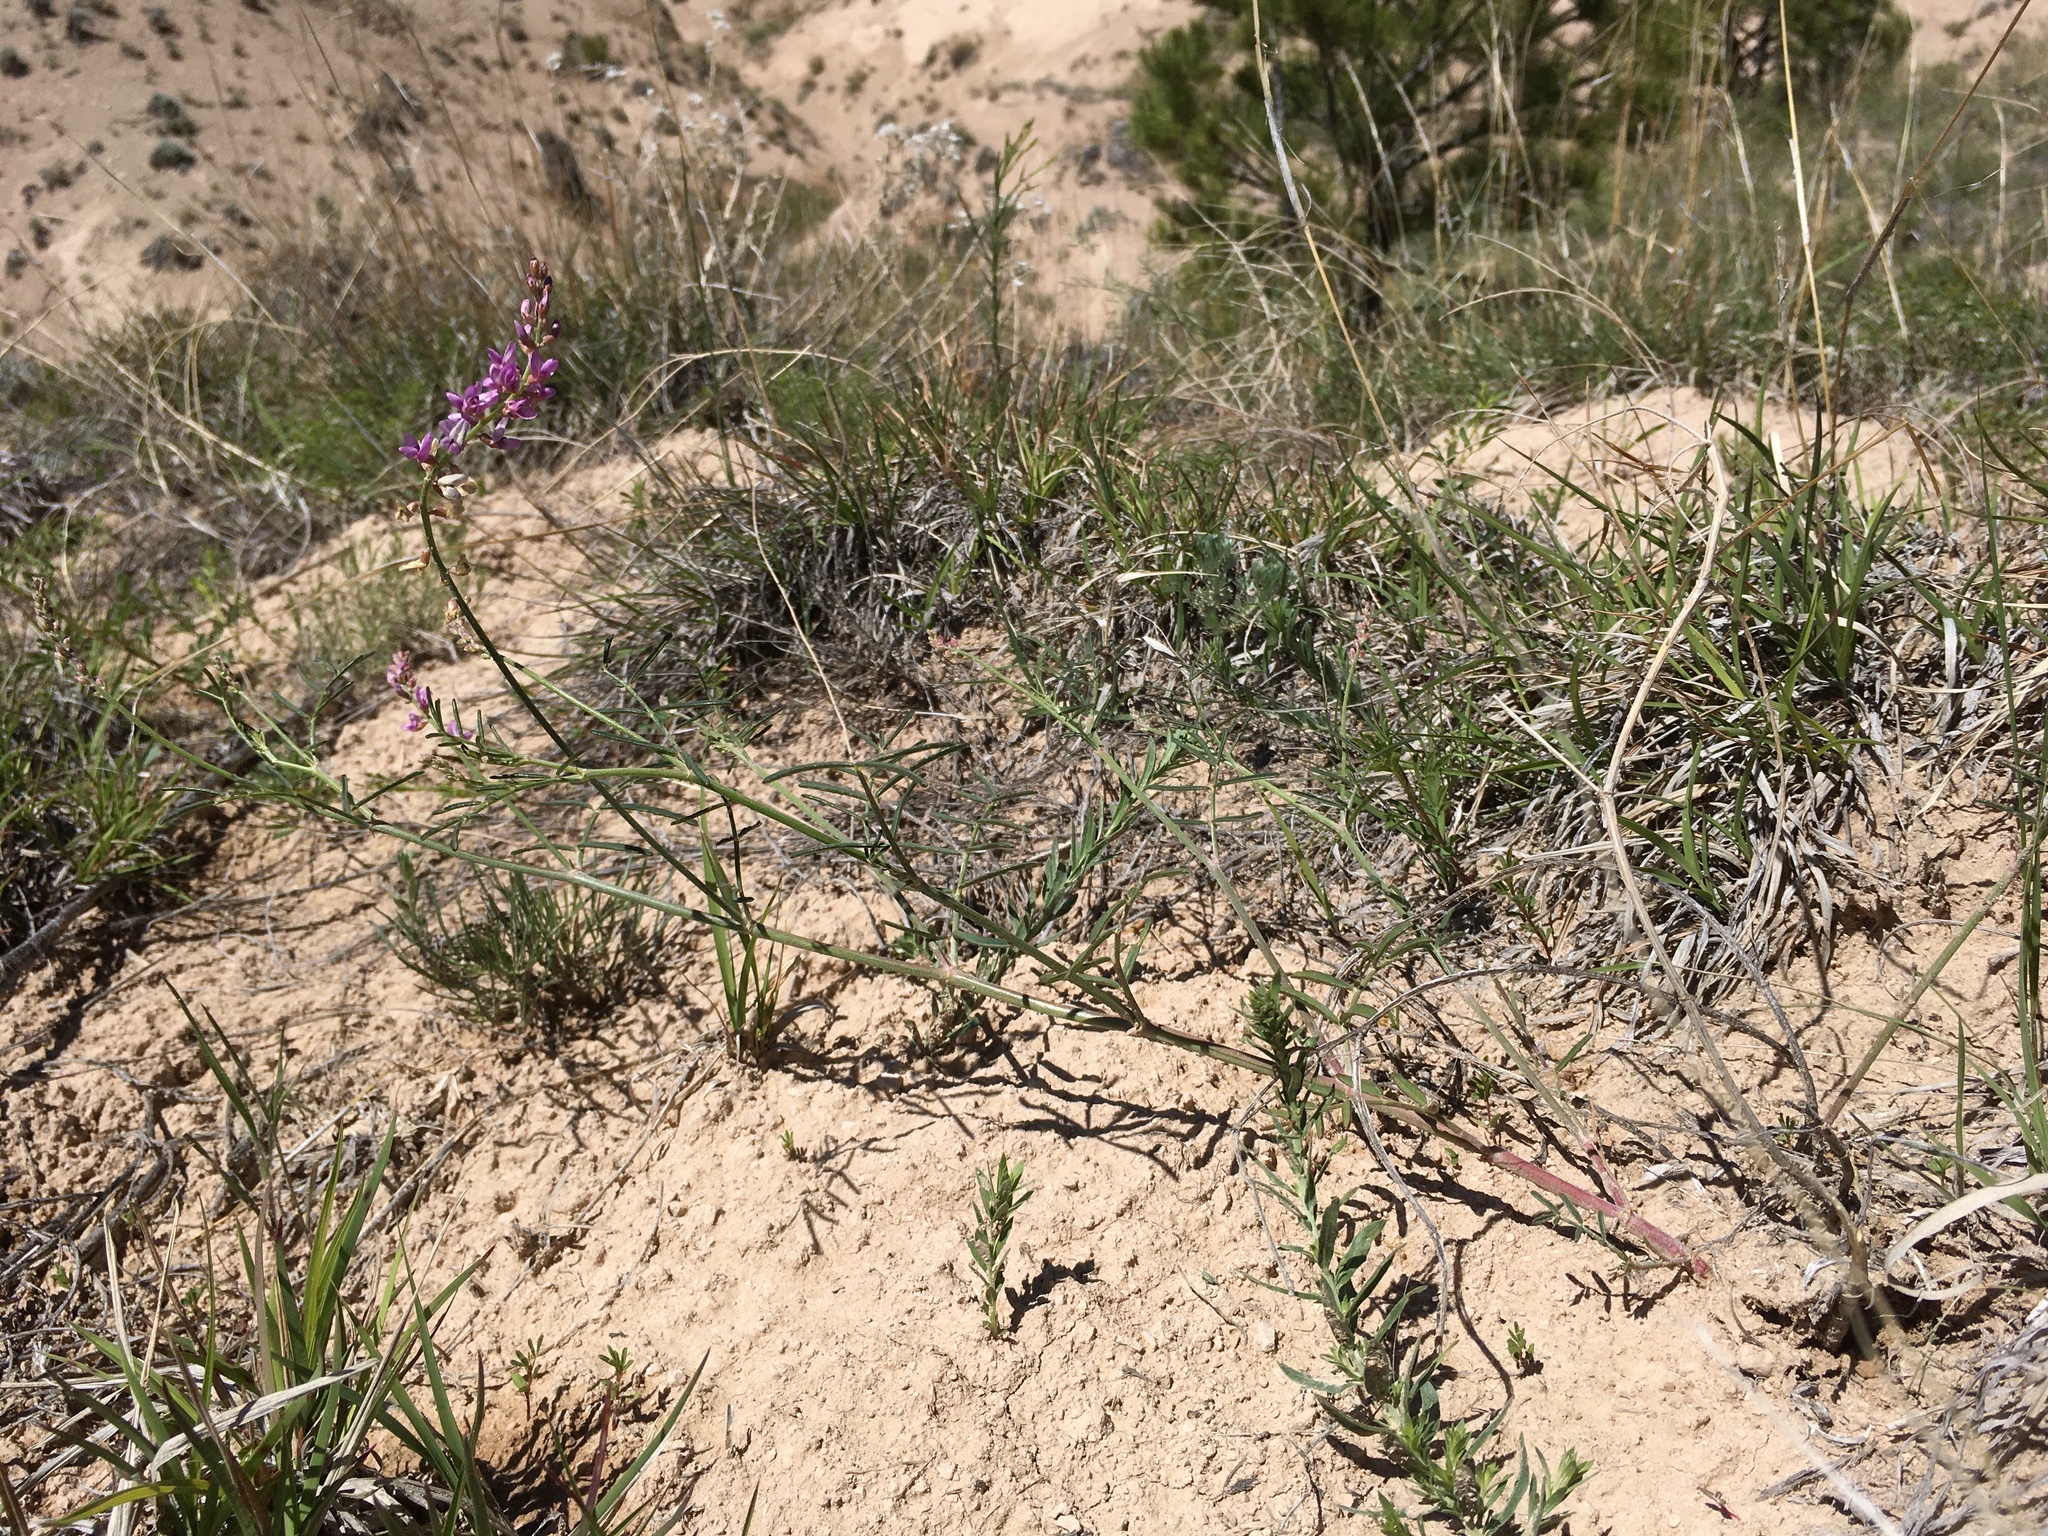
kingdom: Plantae
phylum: Tracheophyta
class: Magnoliopsida
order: Fabales
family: Fabaceae
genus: Astragalus
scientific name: Astragalus gracilis
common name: Slender milk-vetch
